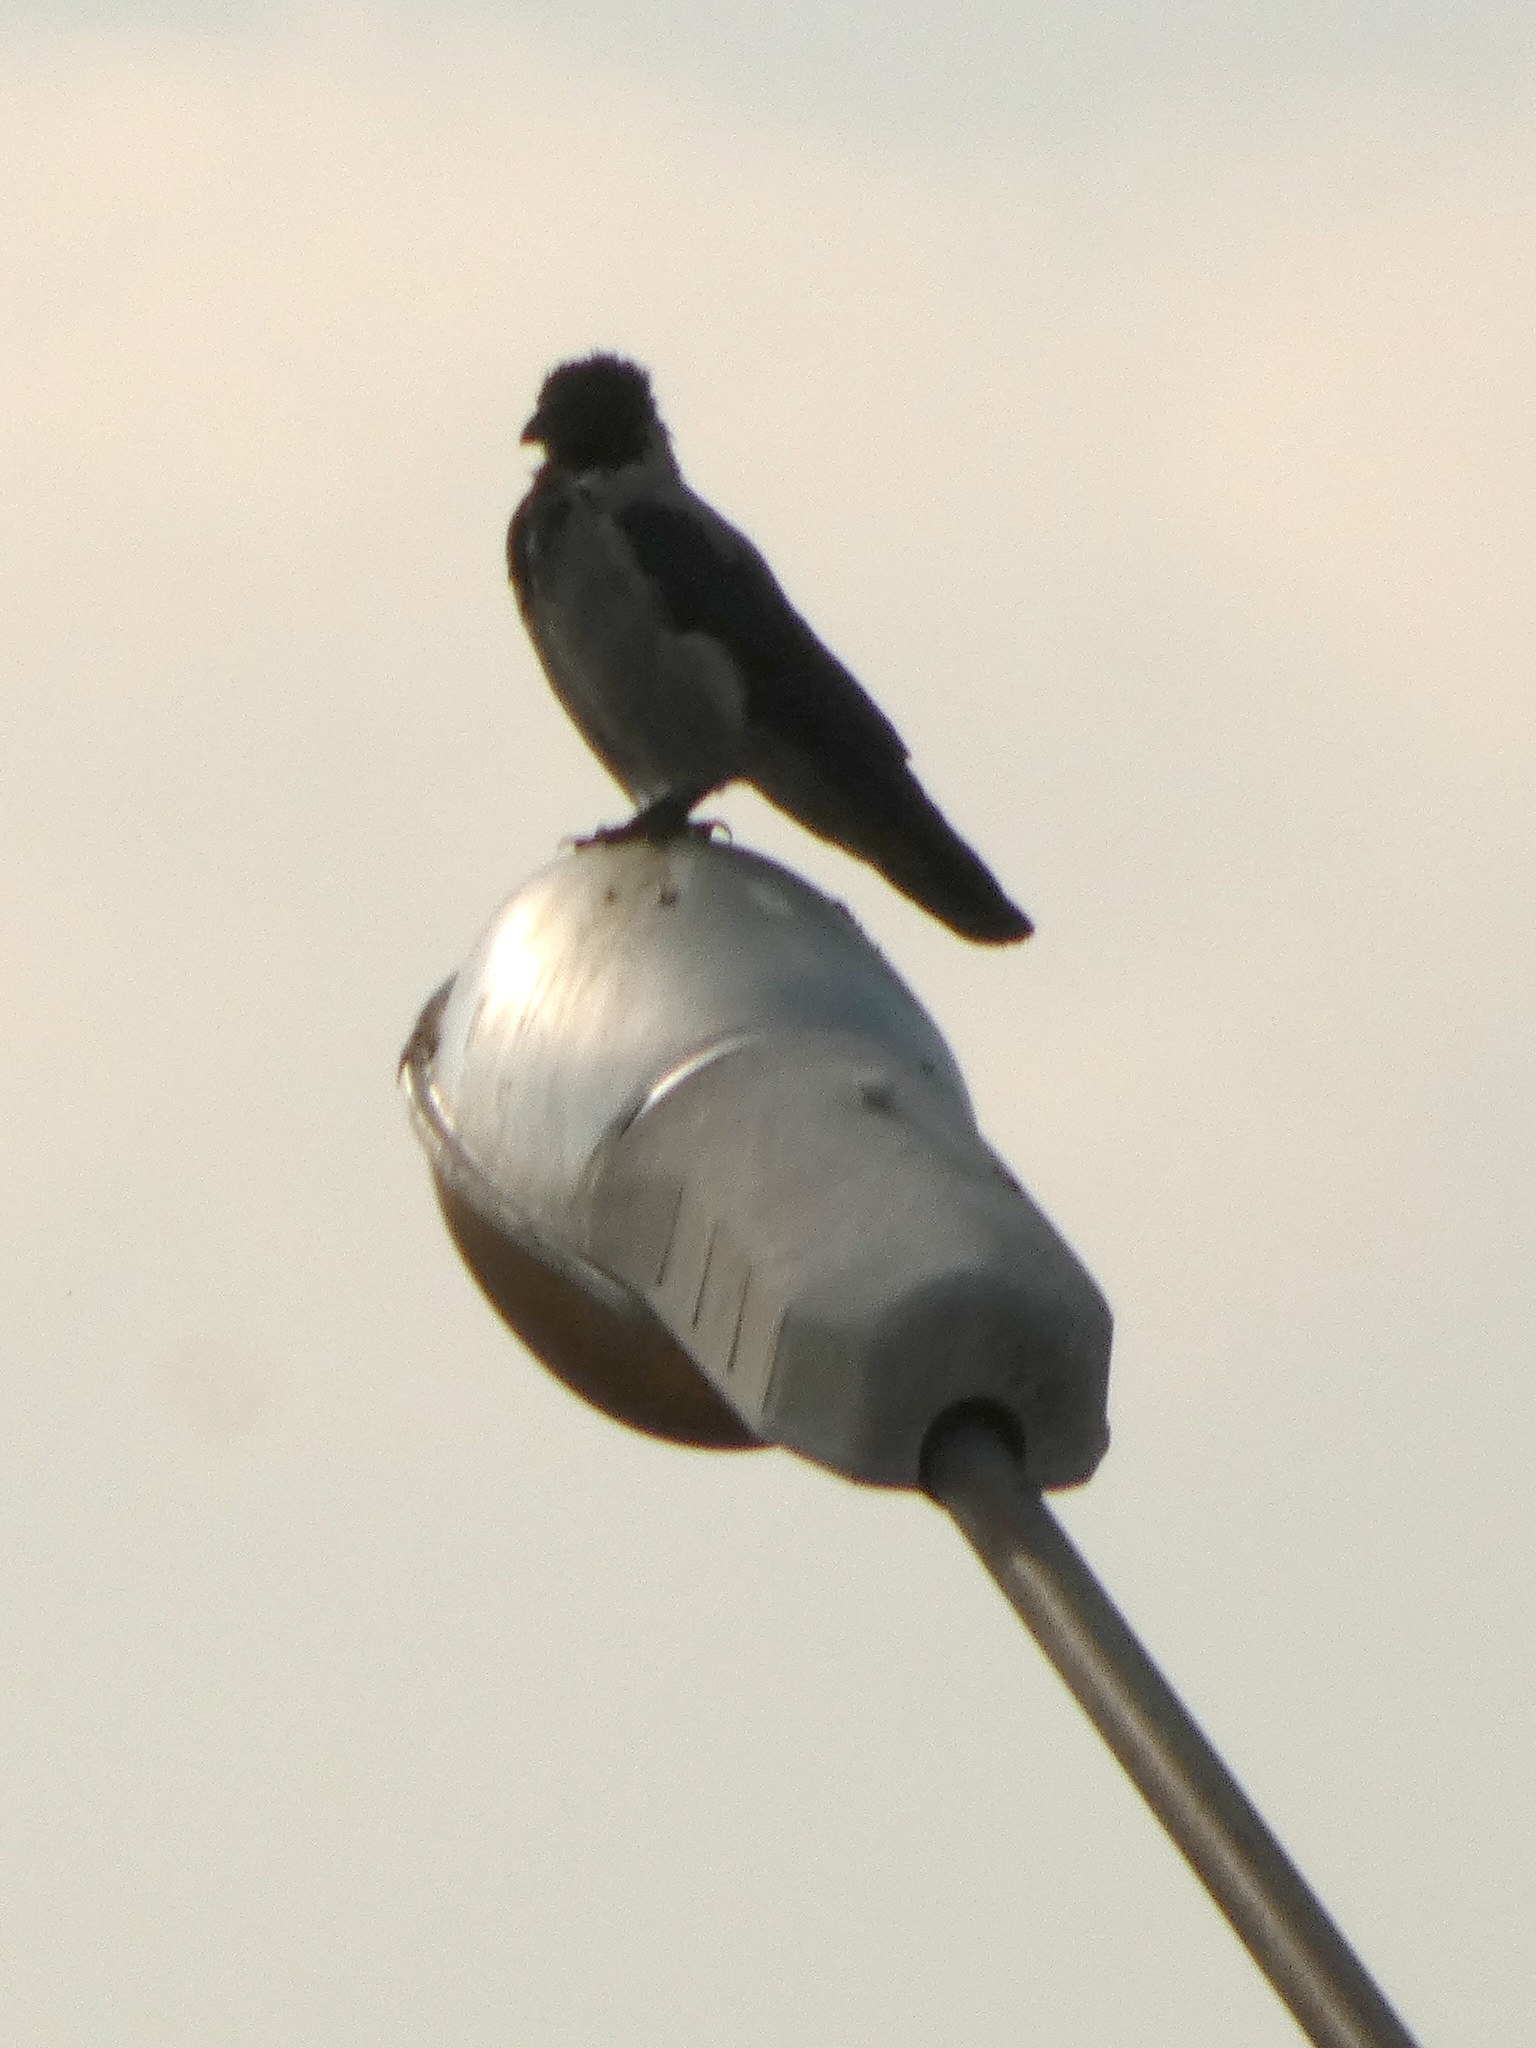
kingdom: Animalia
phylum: Chordata
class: Aves
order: Passeriformes
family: Corvidae
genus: Corvus
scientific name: Corvus cornix
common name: Hooded crow
